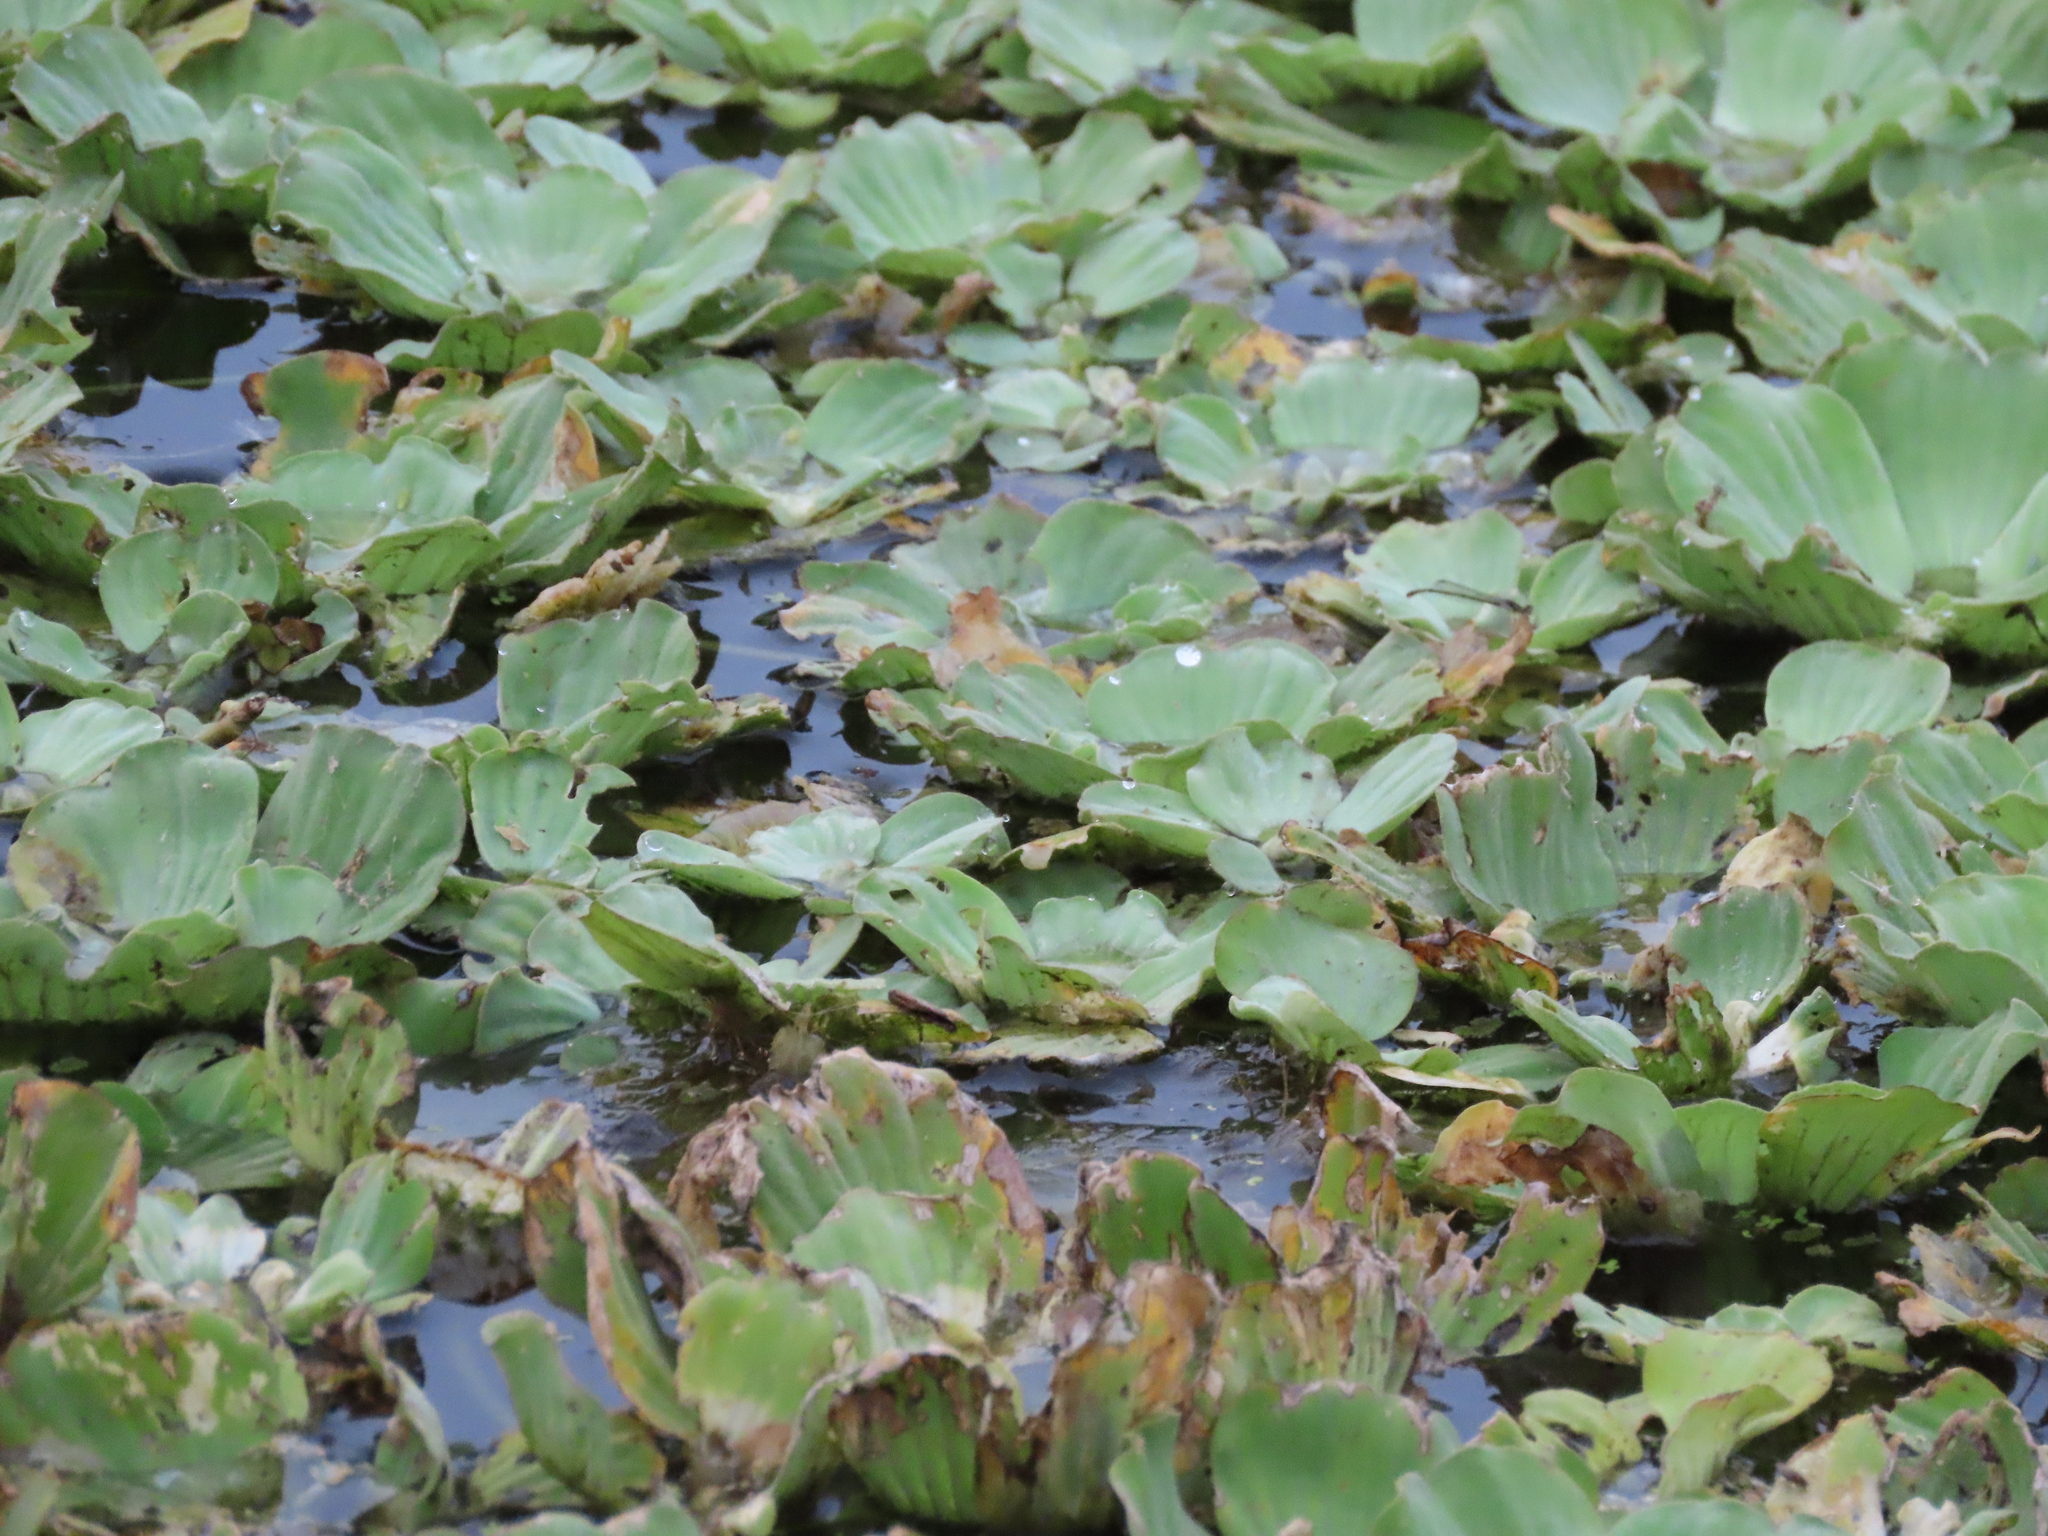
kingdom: Plantae
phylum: Tracheophyta
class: Liliopsida
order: Alismatales
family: Araceae
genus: Pistia
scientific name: Pistia stratiotes
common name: Water lettuce
